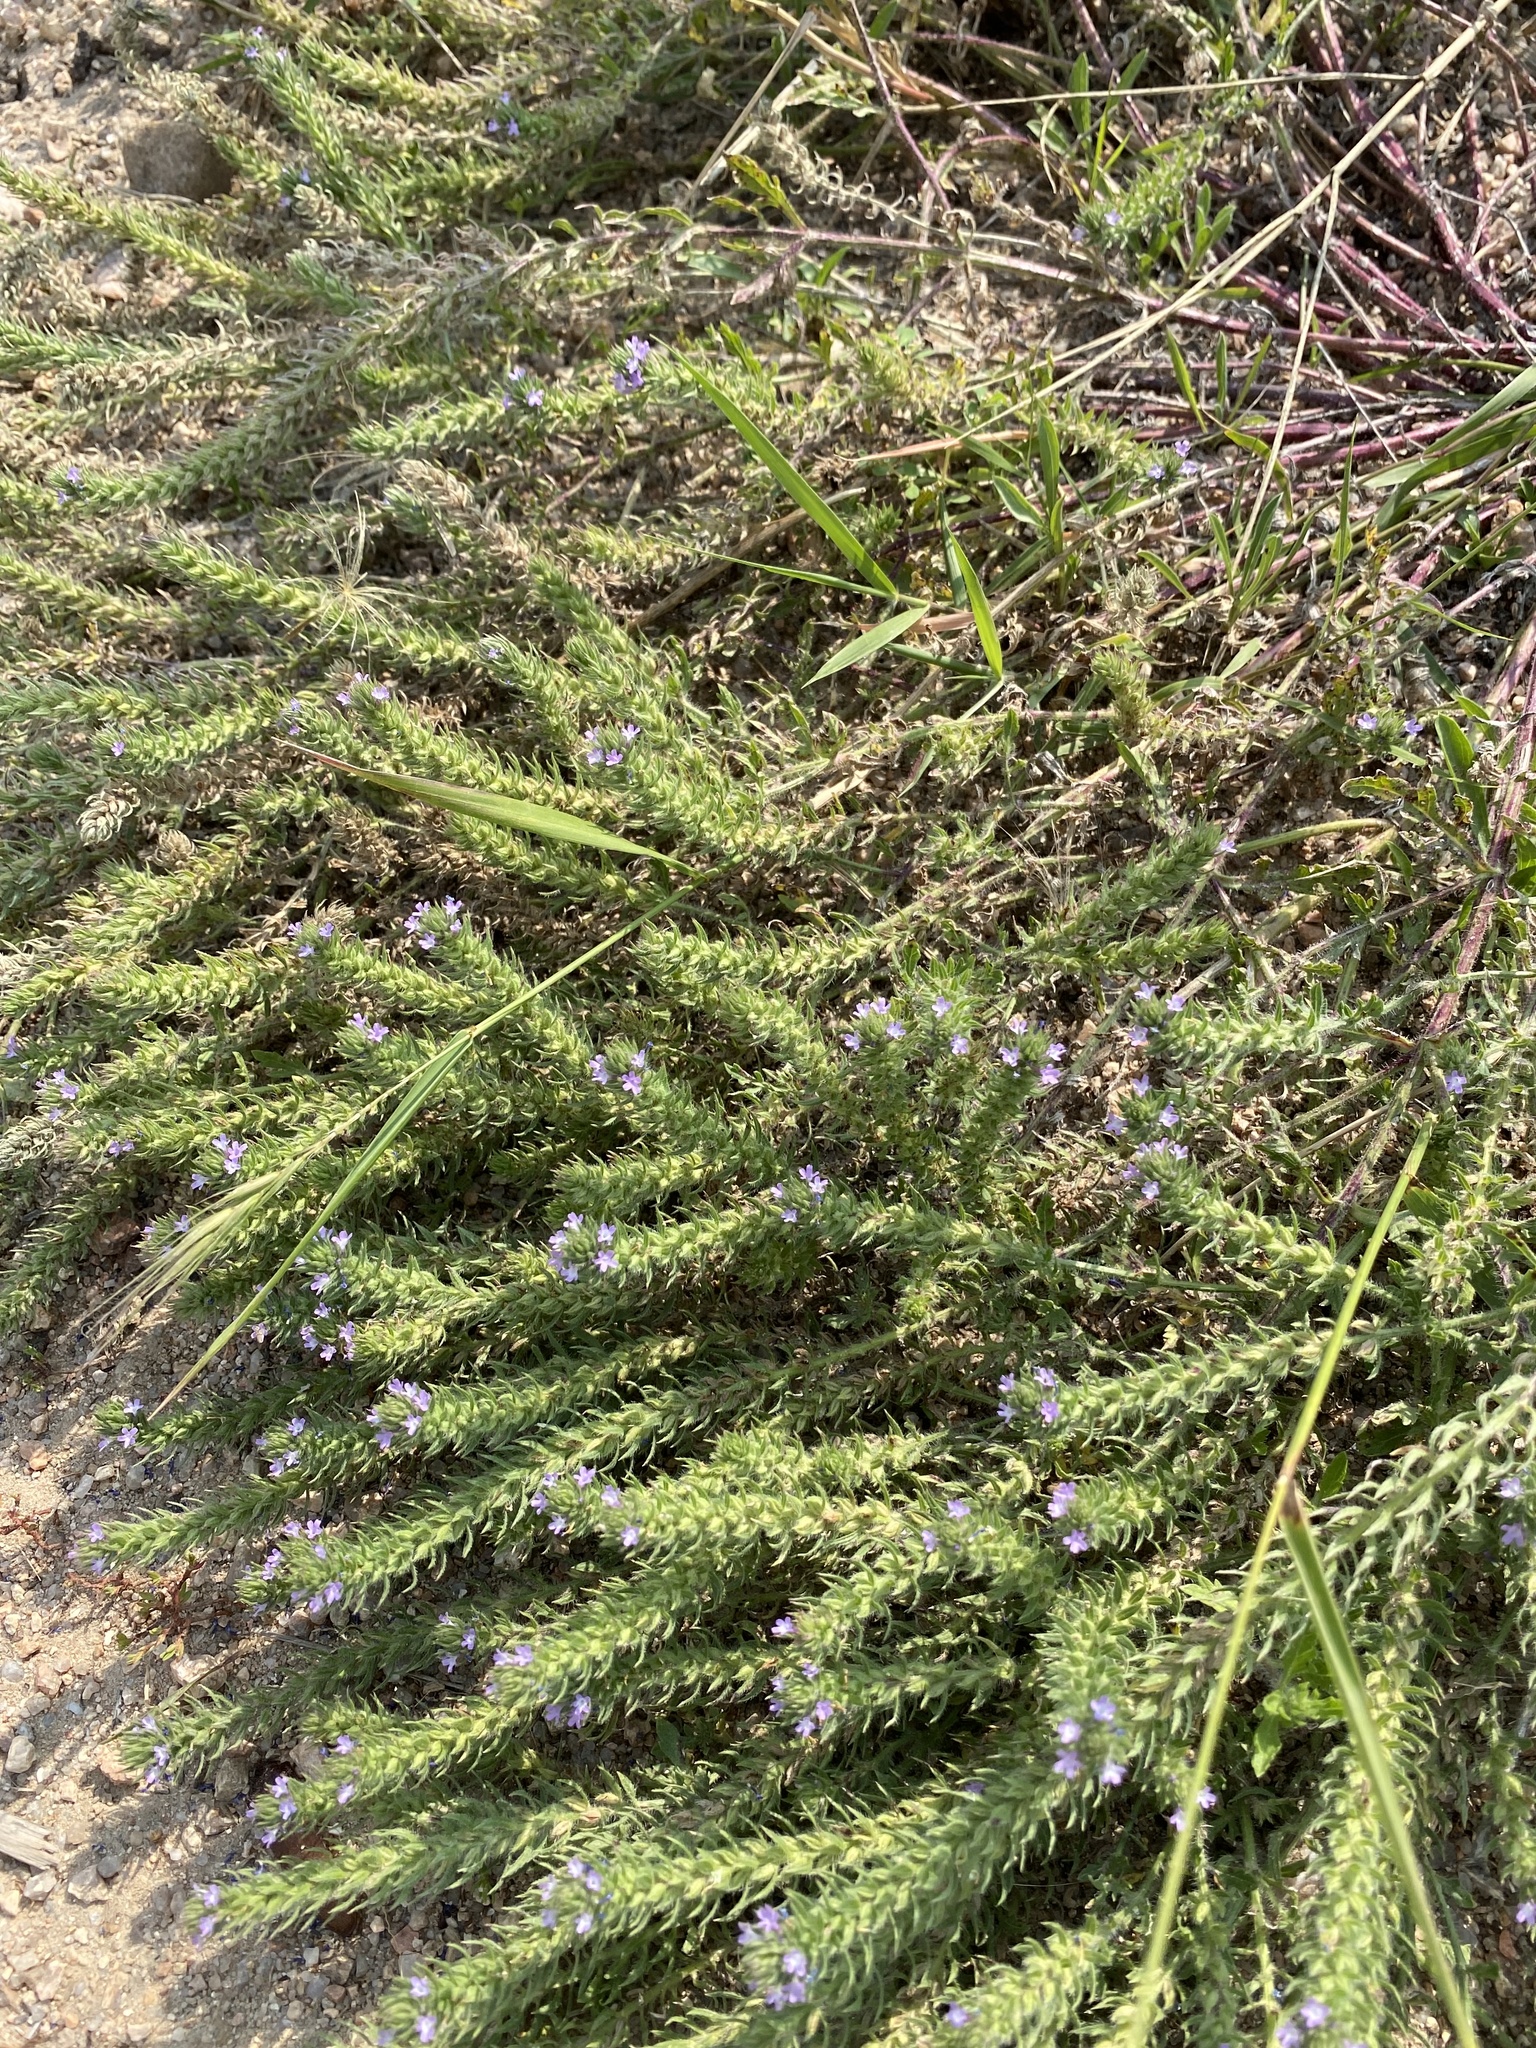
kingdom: Plantae
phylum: Tracheophyta
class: Magnoliopsida
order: Lamiales
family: Verbenaceae
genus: Verbena
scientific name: Verbena bracteata
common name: Bracted vervain
